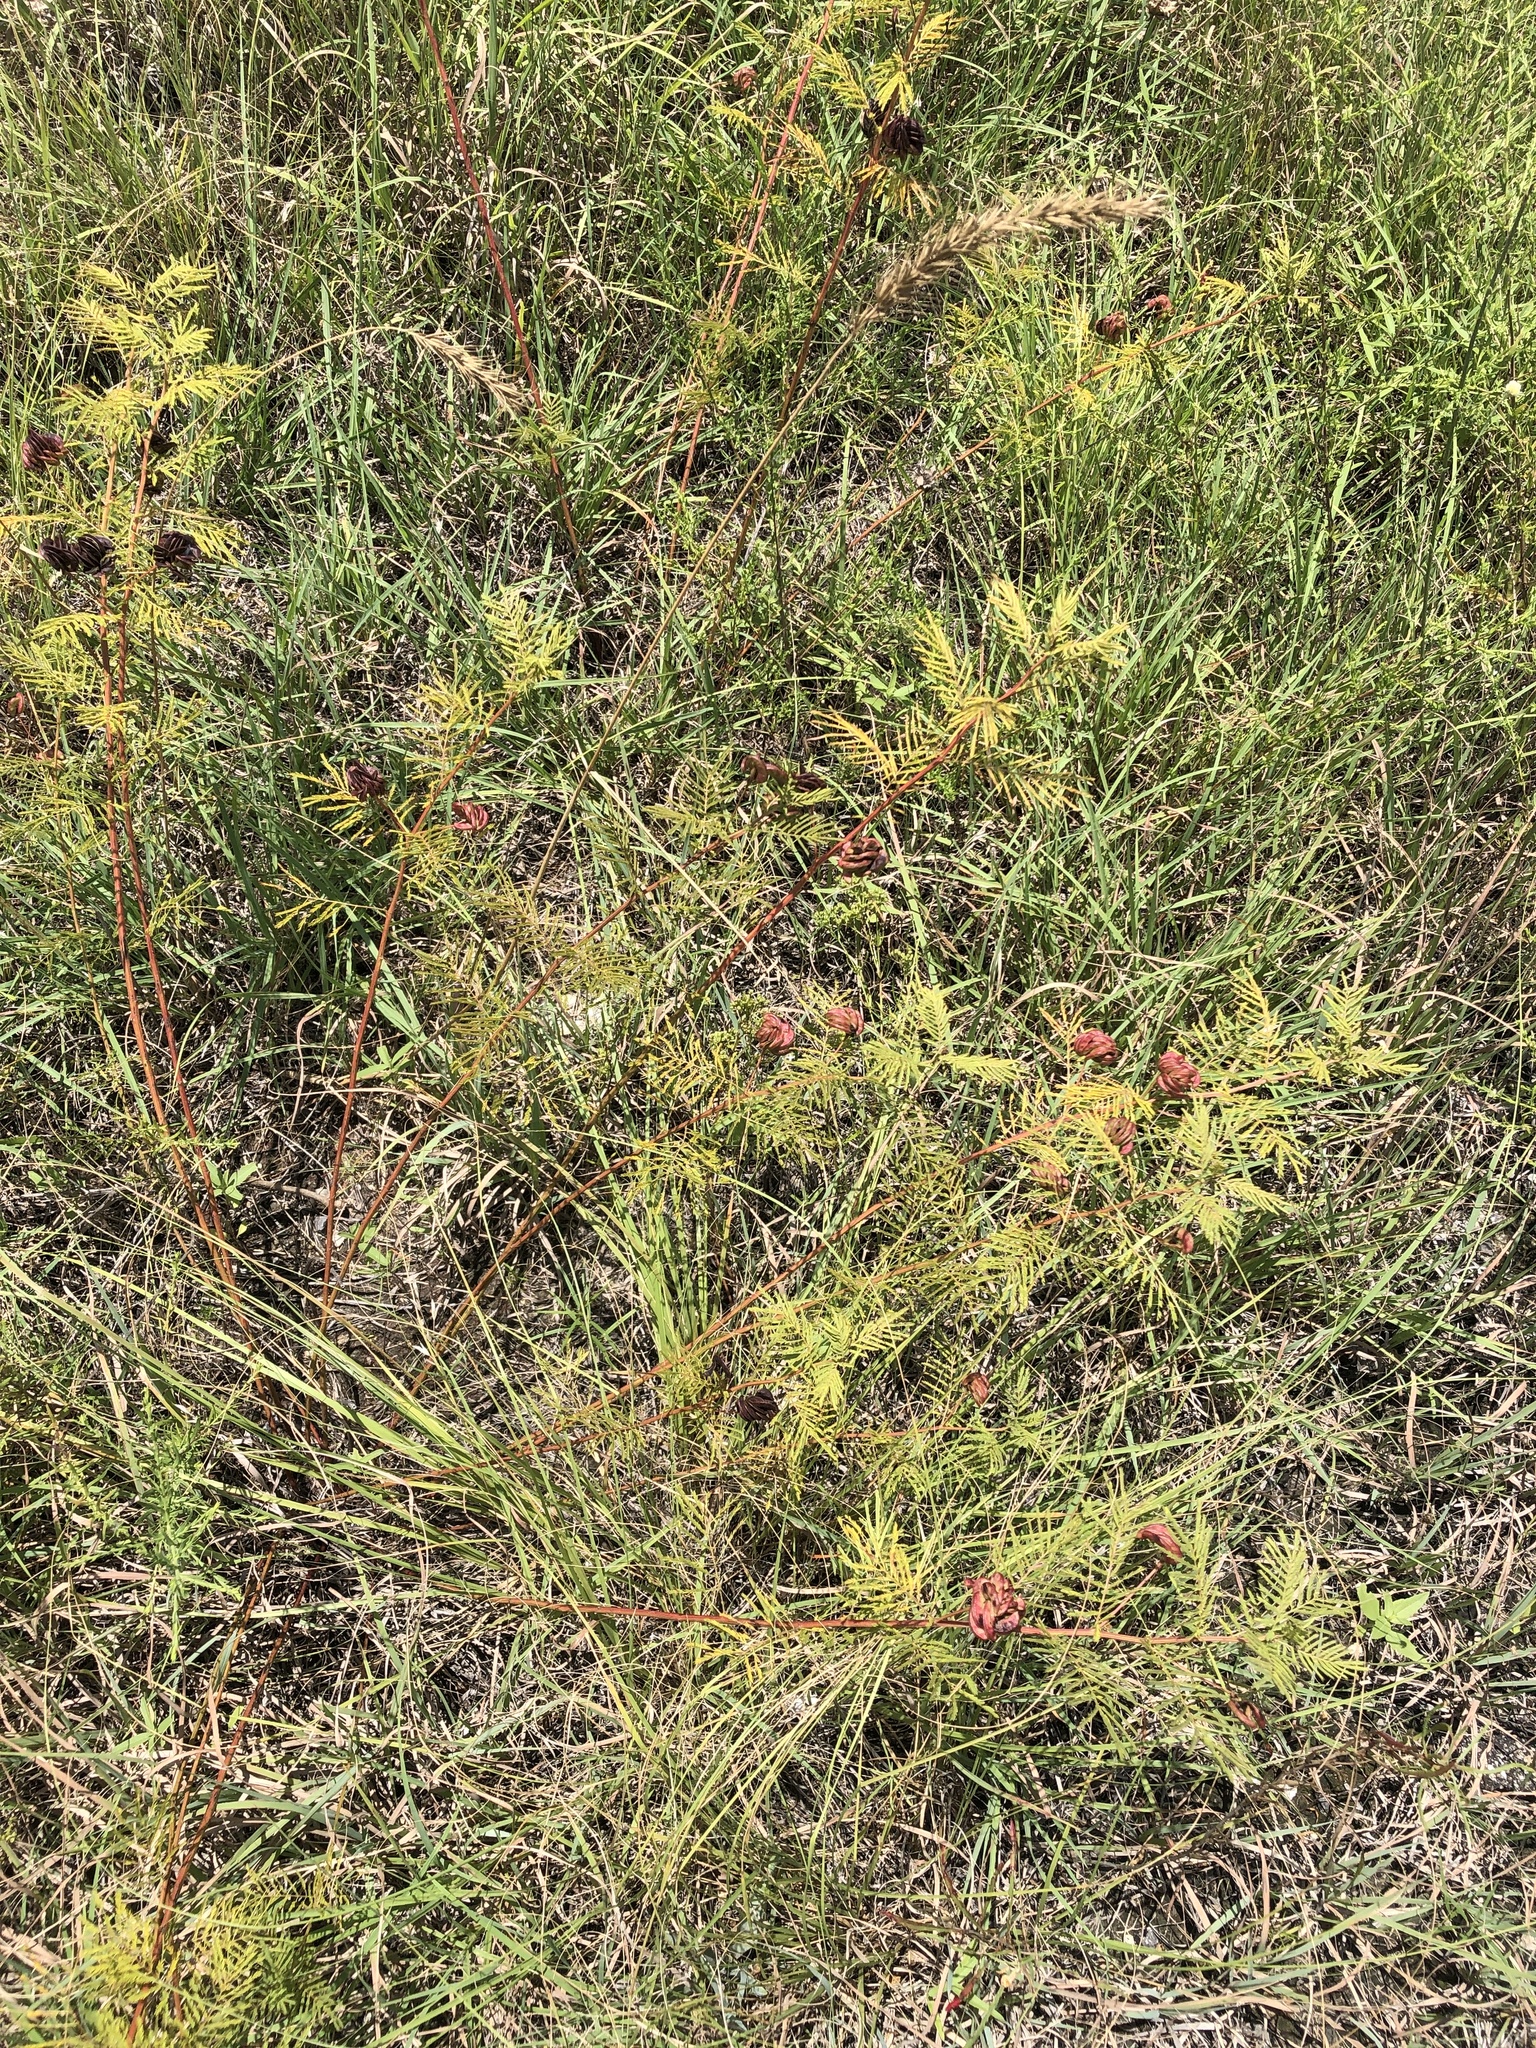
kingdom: Plantae
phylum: Tracheophyta
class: Magnoliopsida
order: Fabales
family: Fabaceae
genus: Desmanthus
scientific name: Desmanthus illinoensis
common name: Illinois bundle-flower
